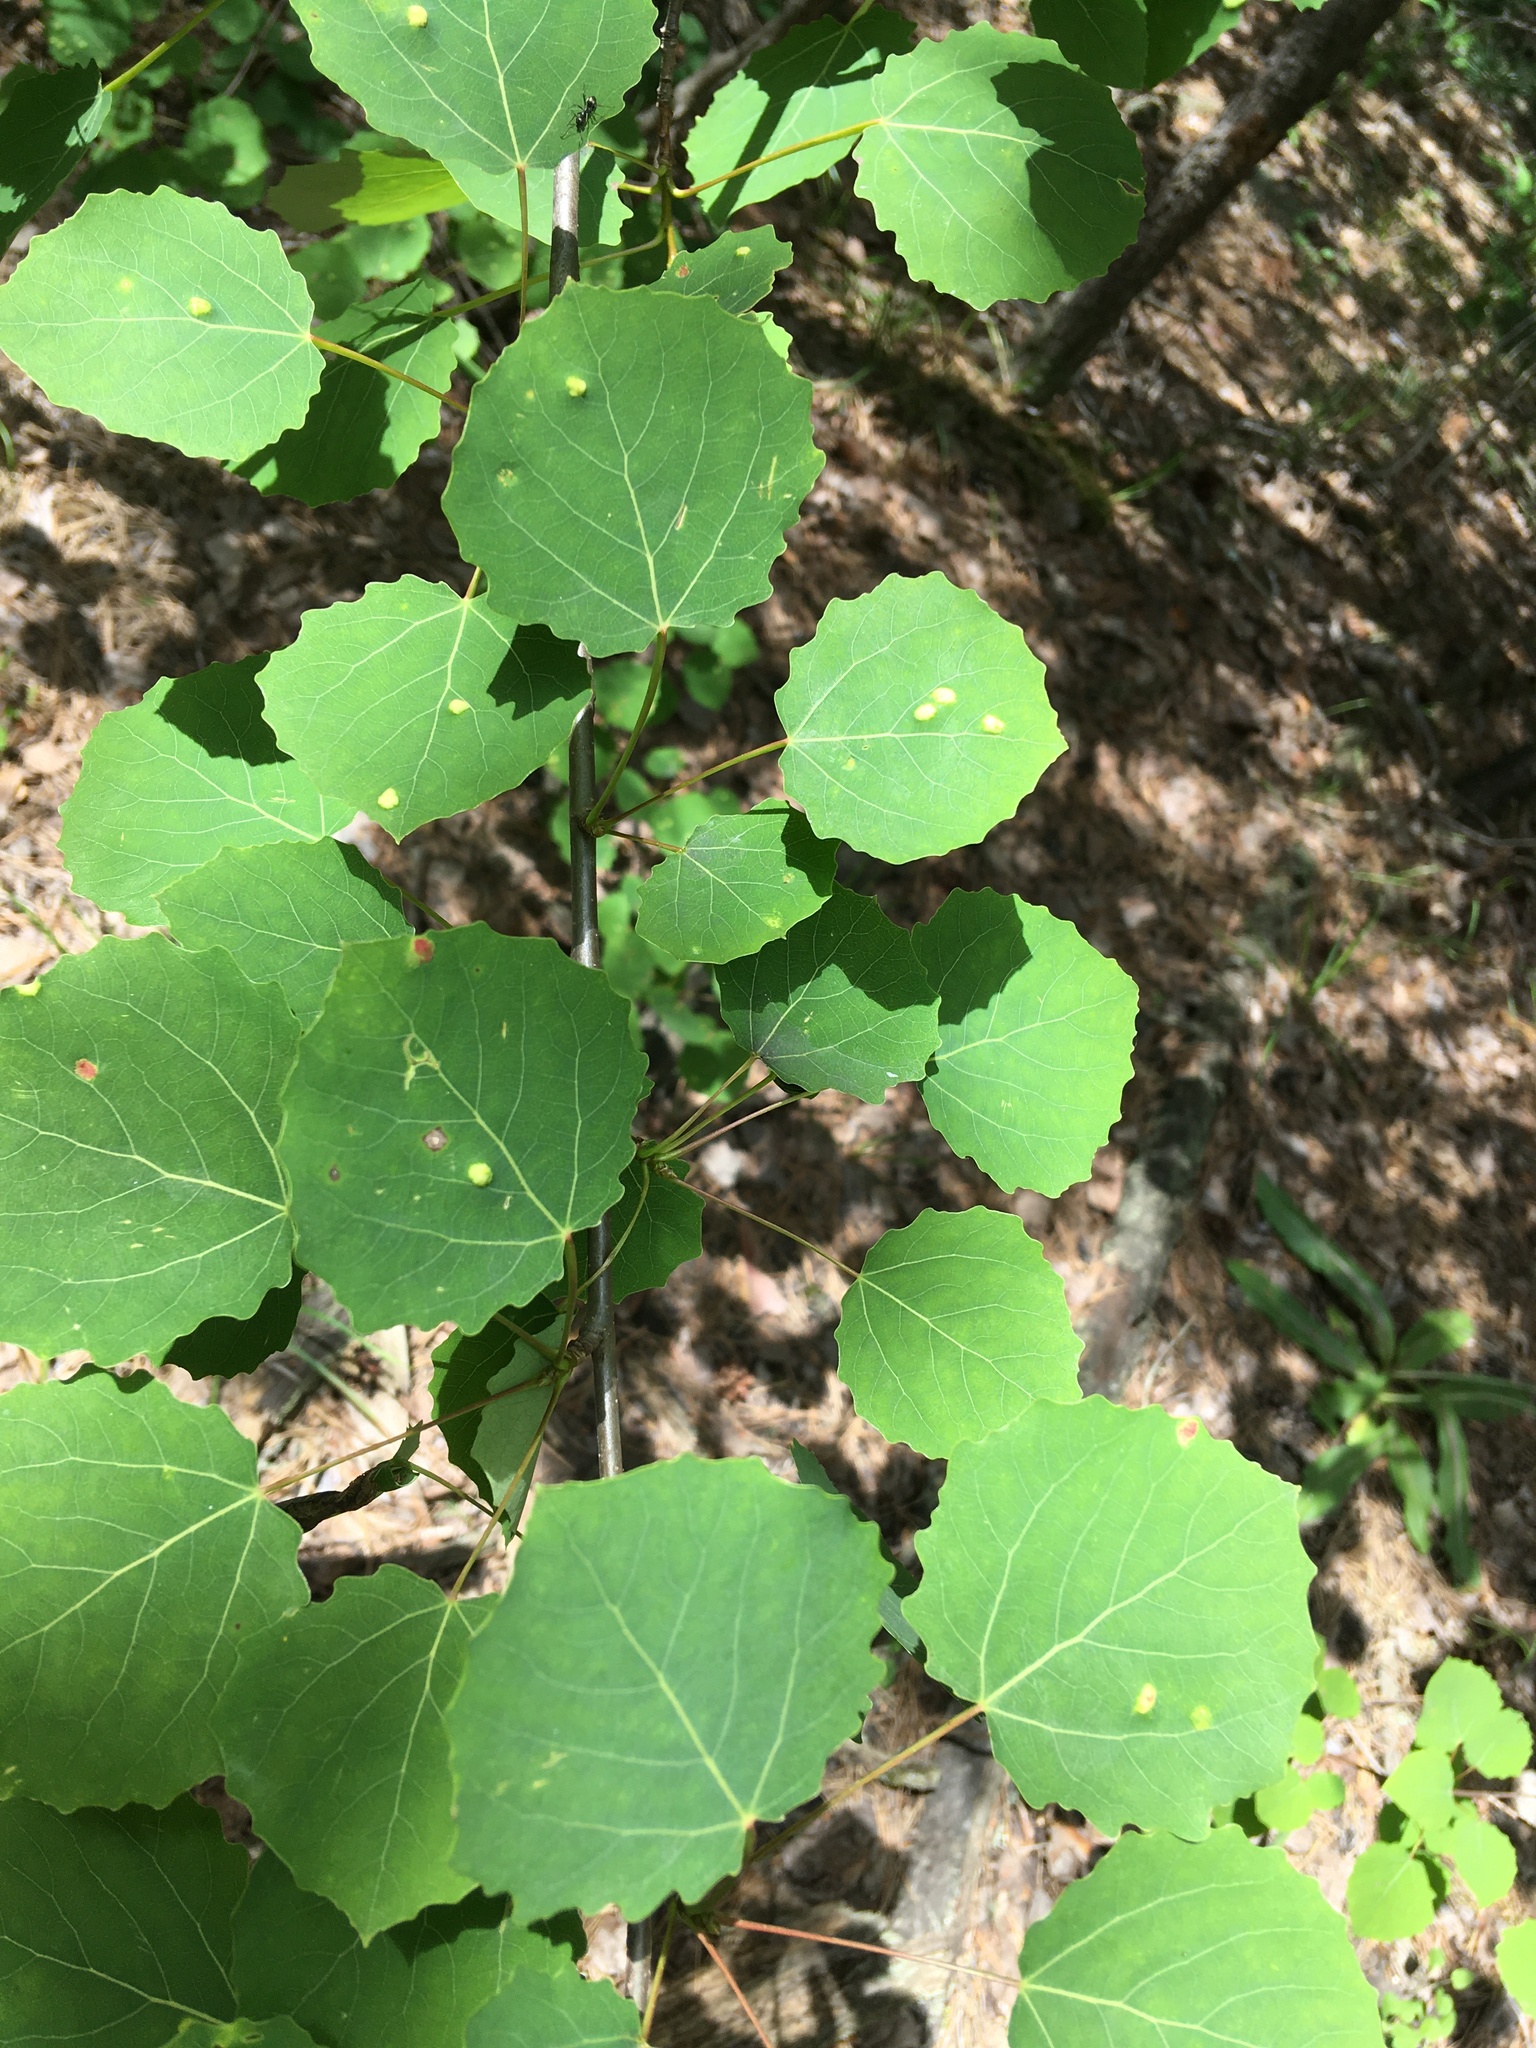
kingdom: Plantae
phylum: Tracheophyta
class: Magnoliopsida
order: Malpighiales
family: Salicaceae
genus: Populus
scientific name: Populus tremula
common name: European aspen
